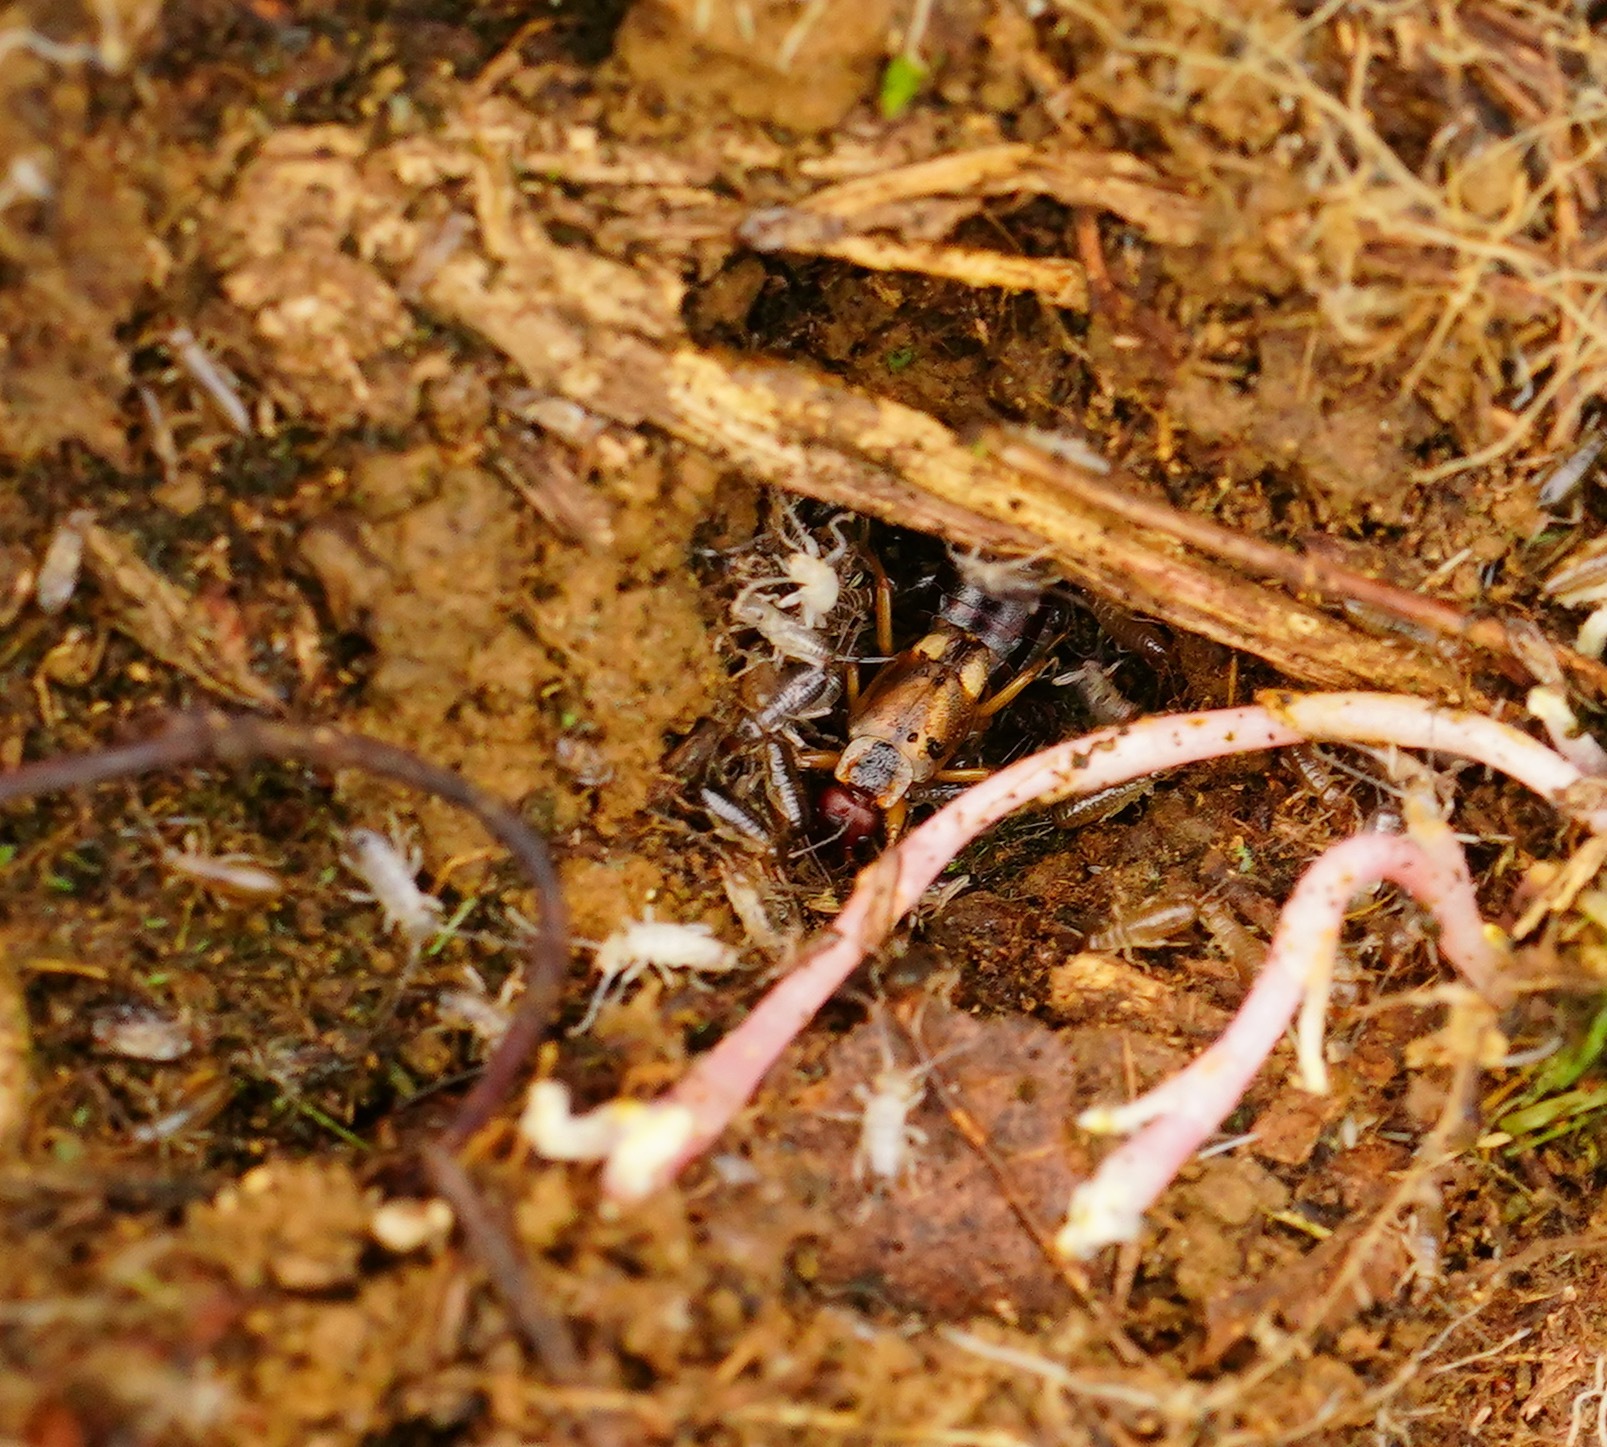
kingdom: Animalia
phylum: Arthropoda
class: Insecta
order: Dermaptera
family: Forficulidae
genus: Forficula
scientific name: Forficula
